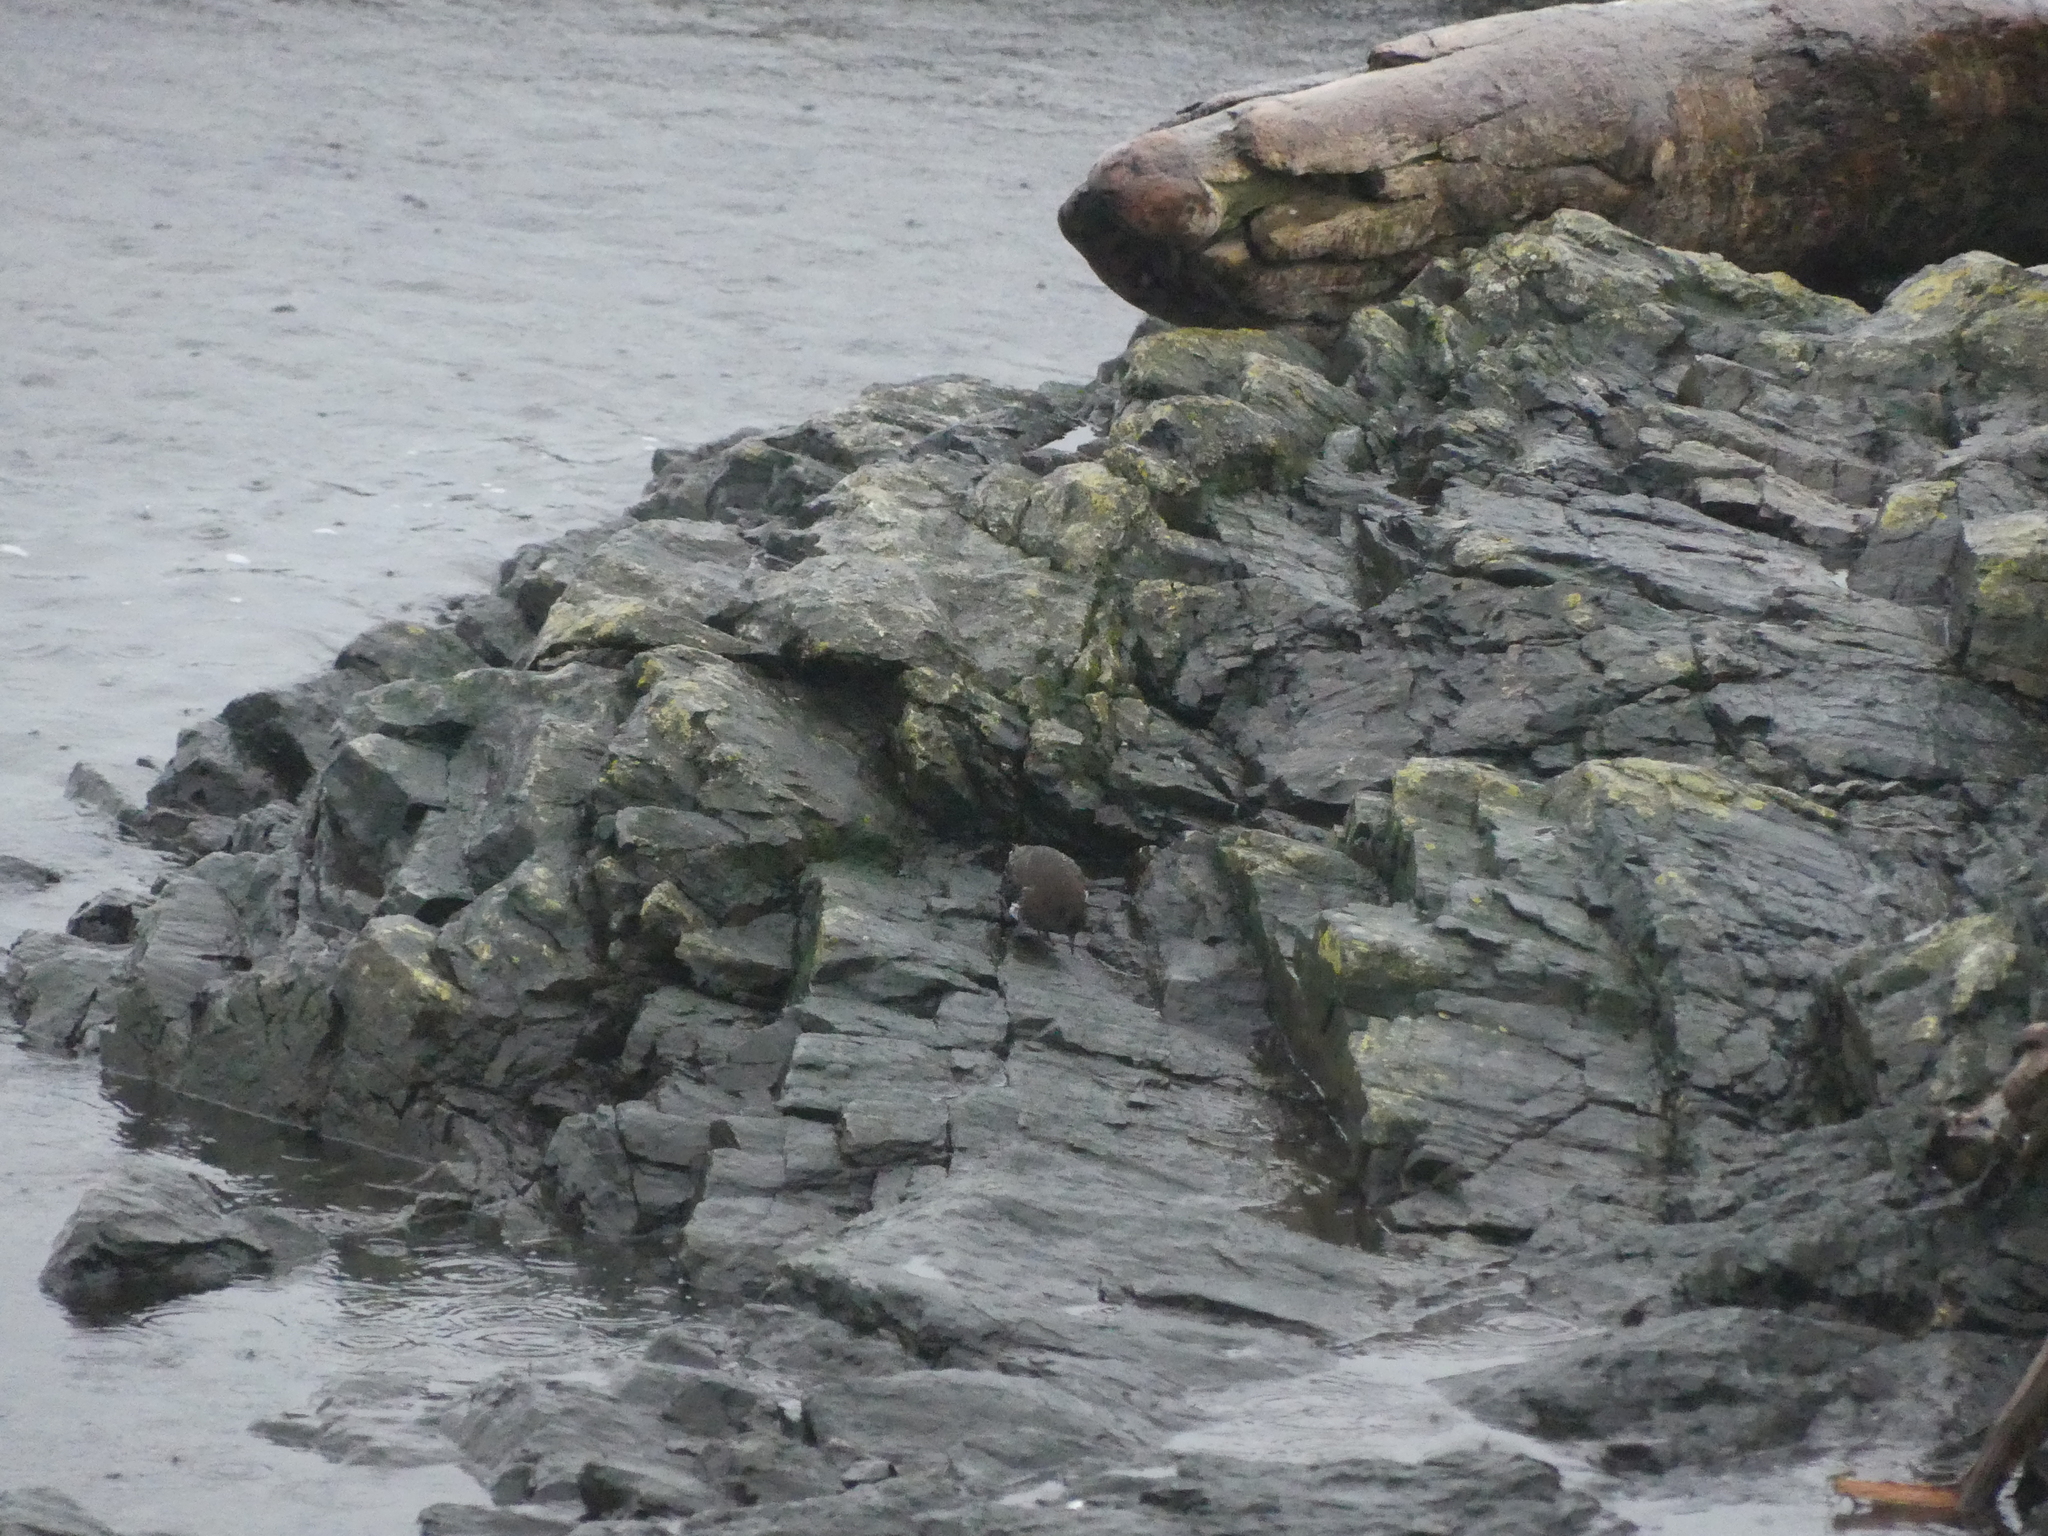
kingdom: Animalia
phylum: Chordata
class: Aves
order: Charadriiformes
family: Scolopacidae
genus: Arenaria
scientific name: Arenaria melanocephala
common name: Black turnstone
